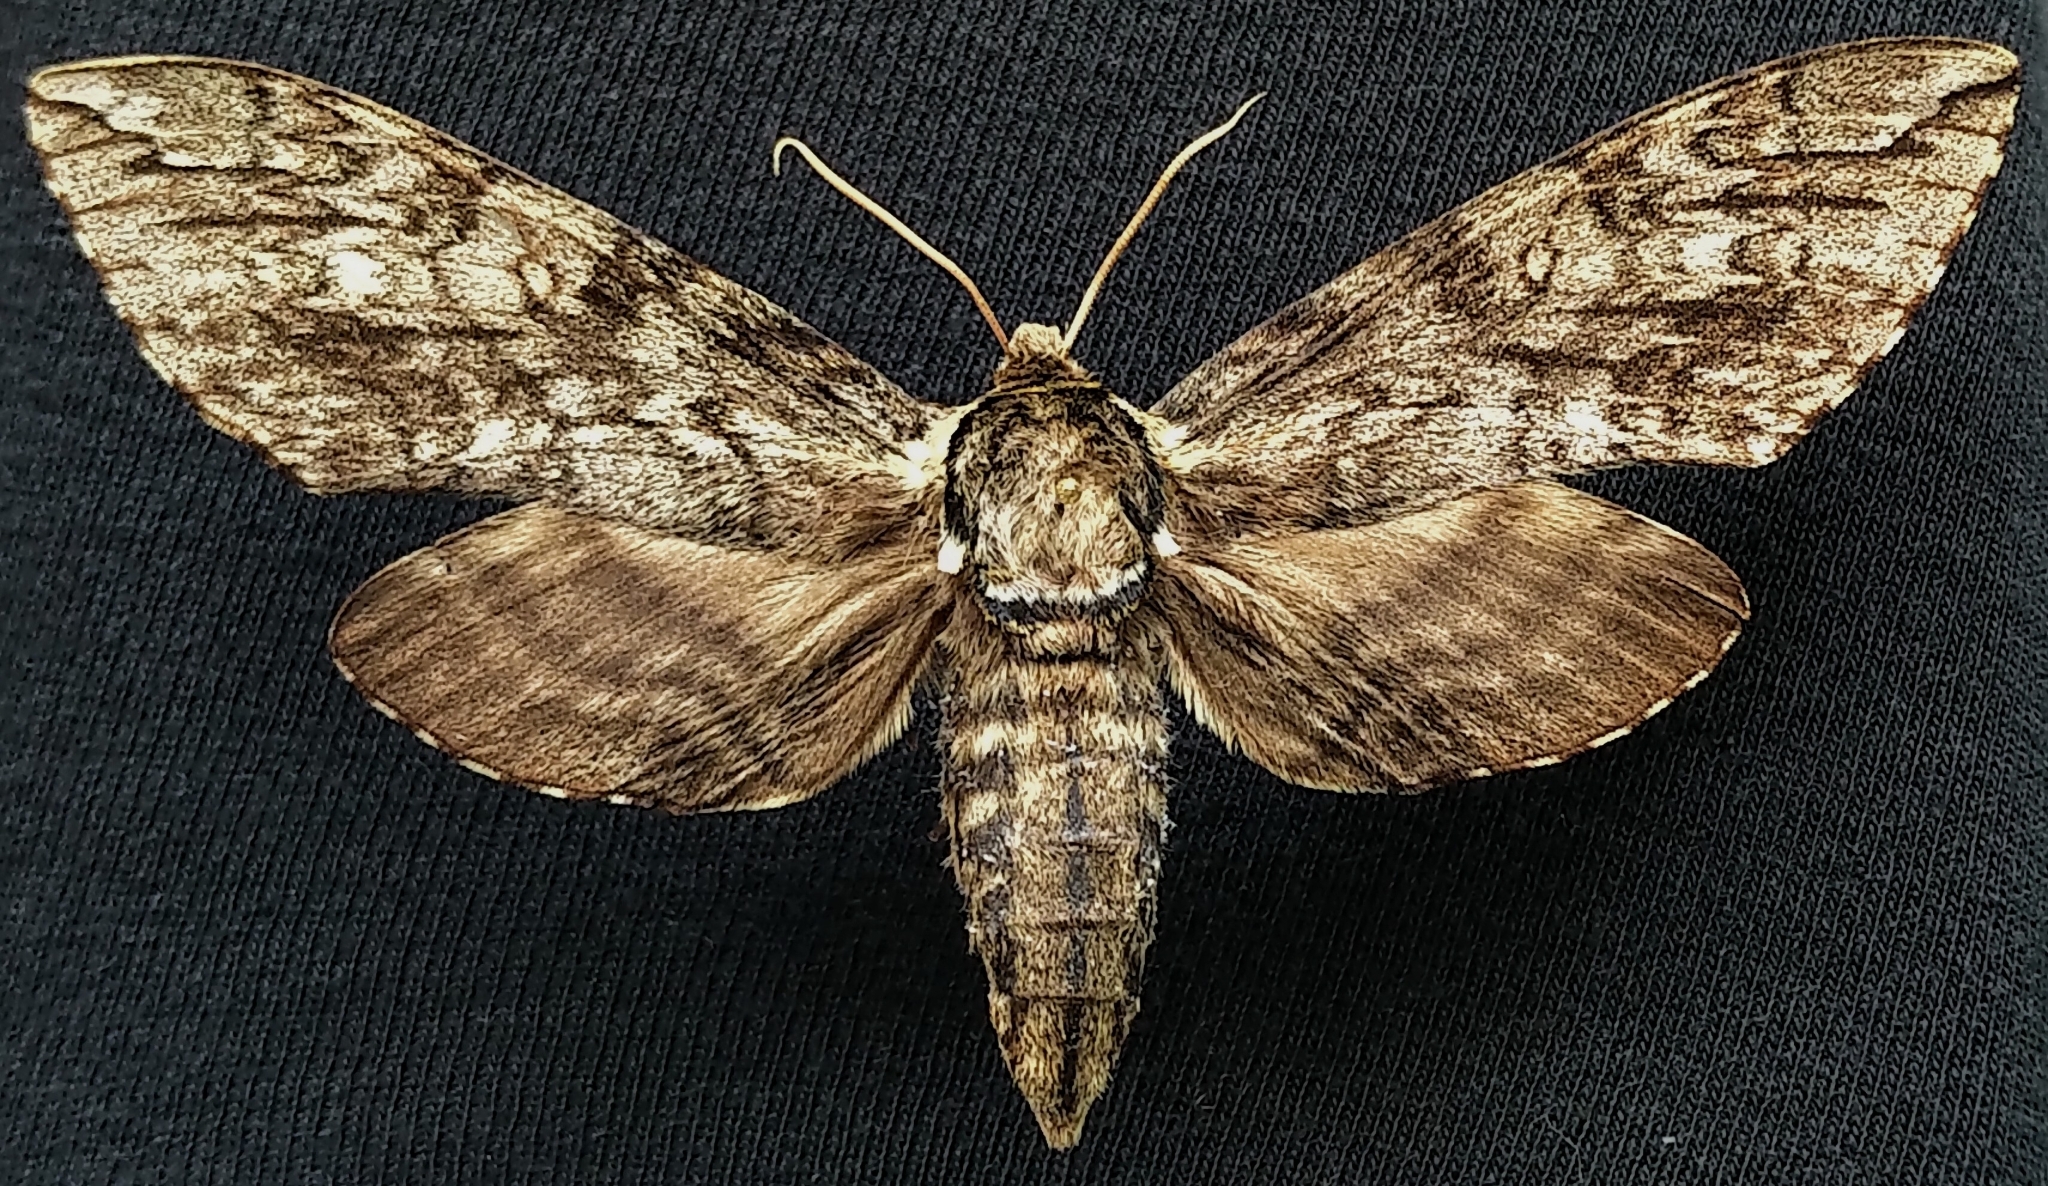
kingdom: Animalia
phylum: Arthropoda
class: Insecta
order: Lepidoptera
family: Sphingidae
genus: Ceratomia
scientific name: Ceratomia undulosa
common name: Waved sphinx
